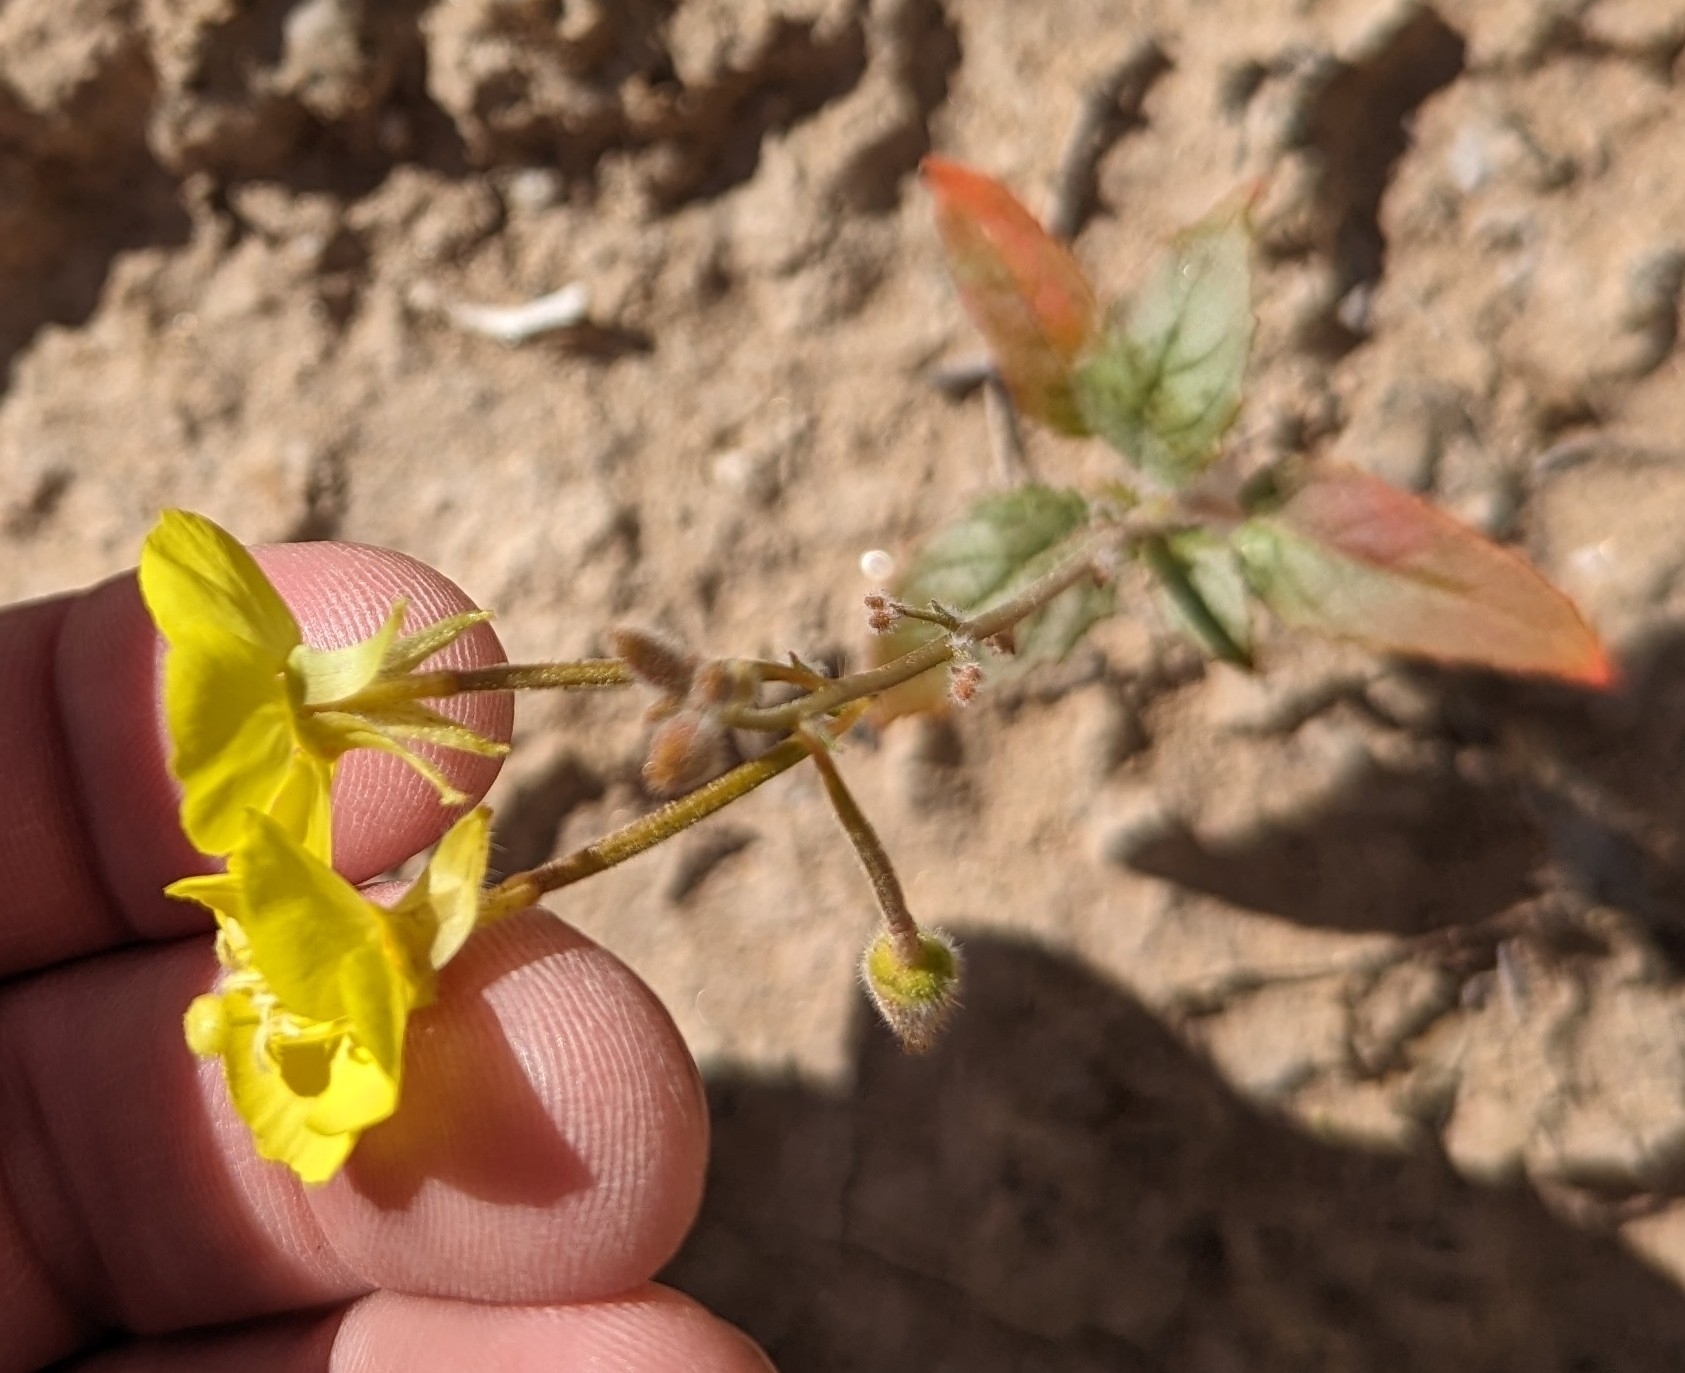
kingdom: Plantae
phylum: Tracheophyta
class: Magnoliopsida
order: Myrtales
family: Onagraceae
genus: Chylismia
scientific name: Chylismia brevipes
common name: Yellow cups
